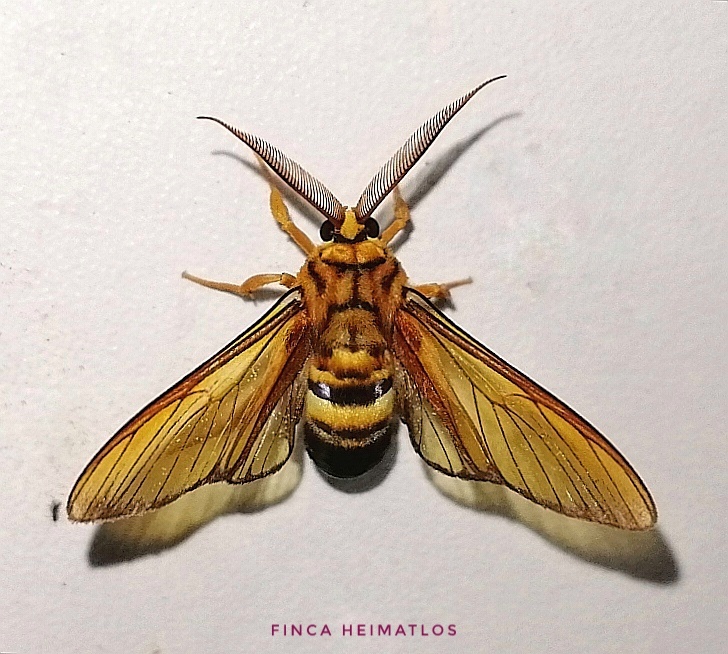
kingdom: Animalia
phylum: Arthropoda
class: Insecta
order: Lepidoptera
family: Erebidae
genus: Sarosa
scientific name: Sarosa acutior
